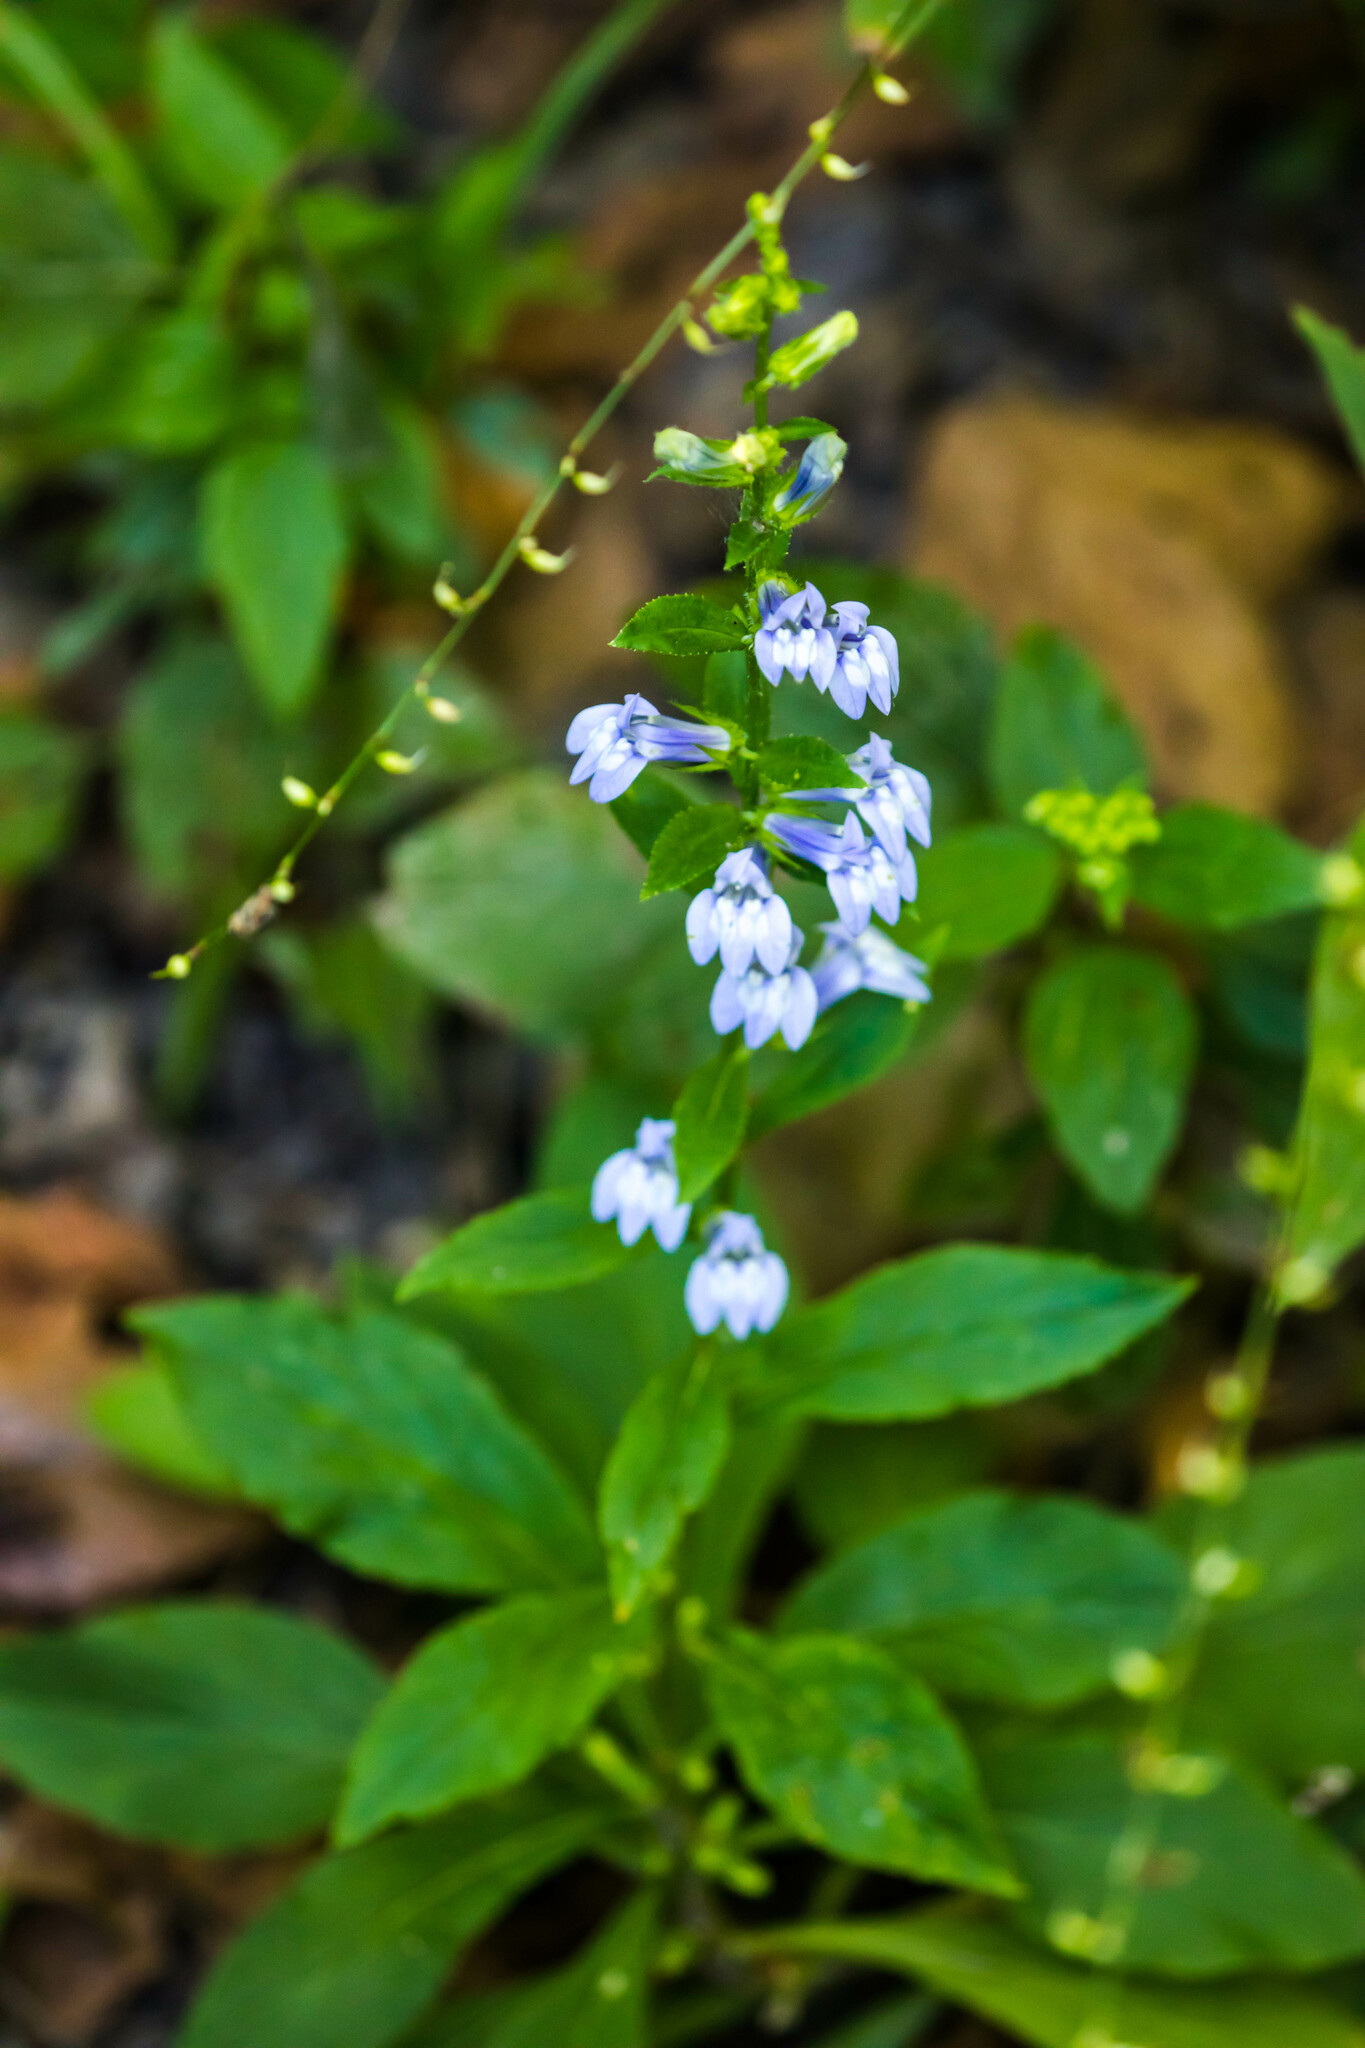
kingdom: Plantae
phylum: Tracheophyta
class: Magnoliopsida
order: Asterales
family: Campanulaceae
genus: Lobelia
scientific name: Lobelia siphilitica
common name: Great lobelia
